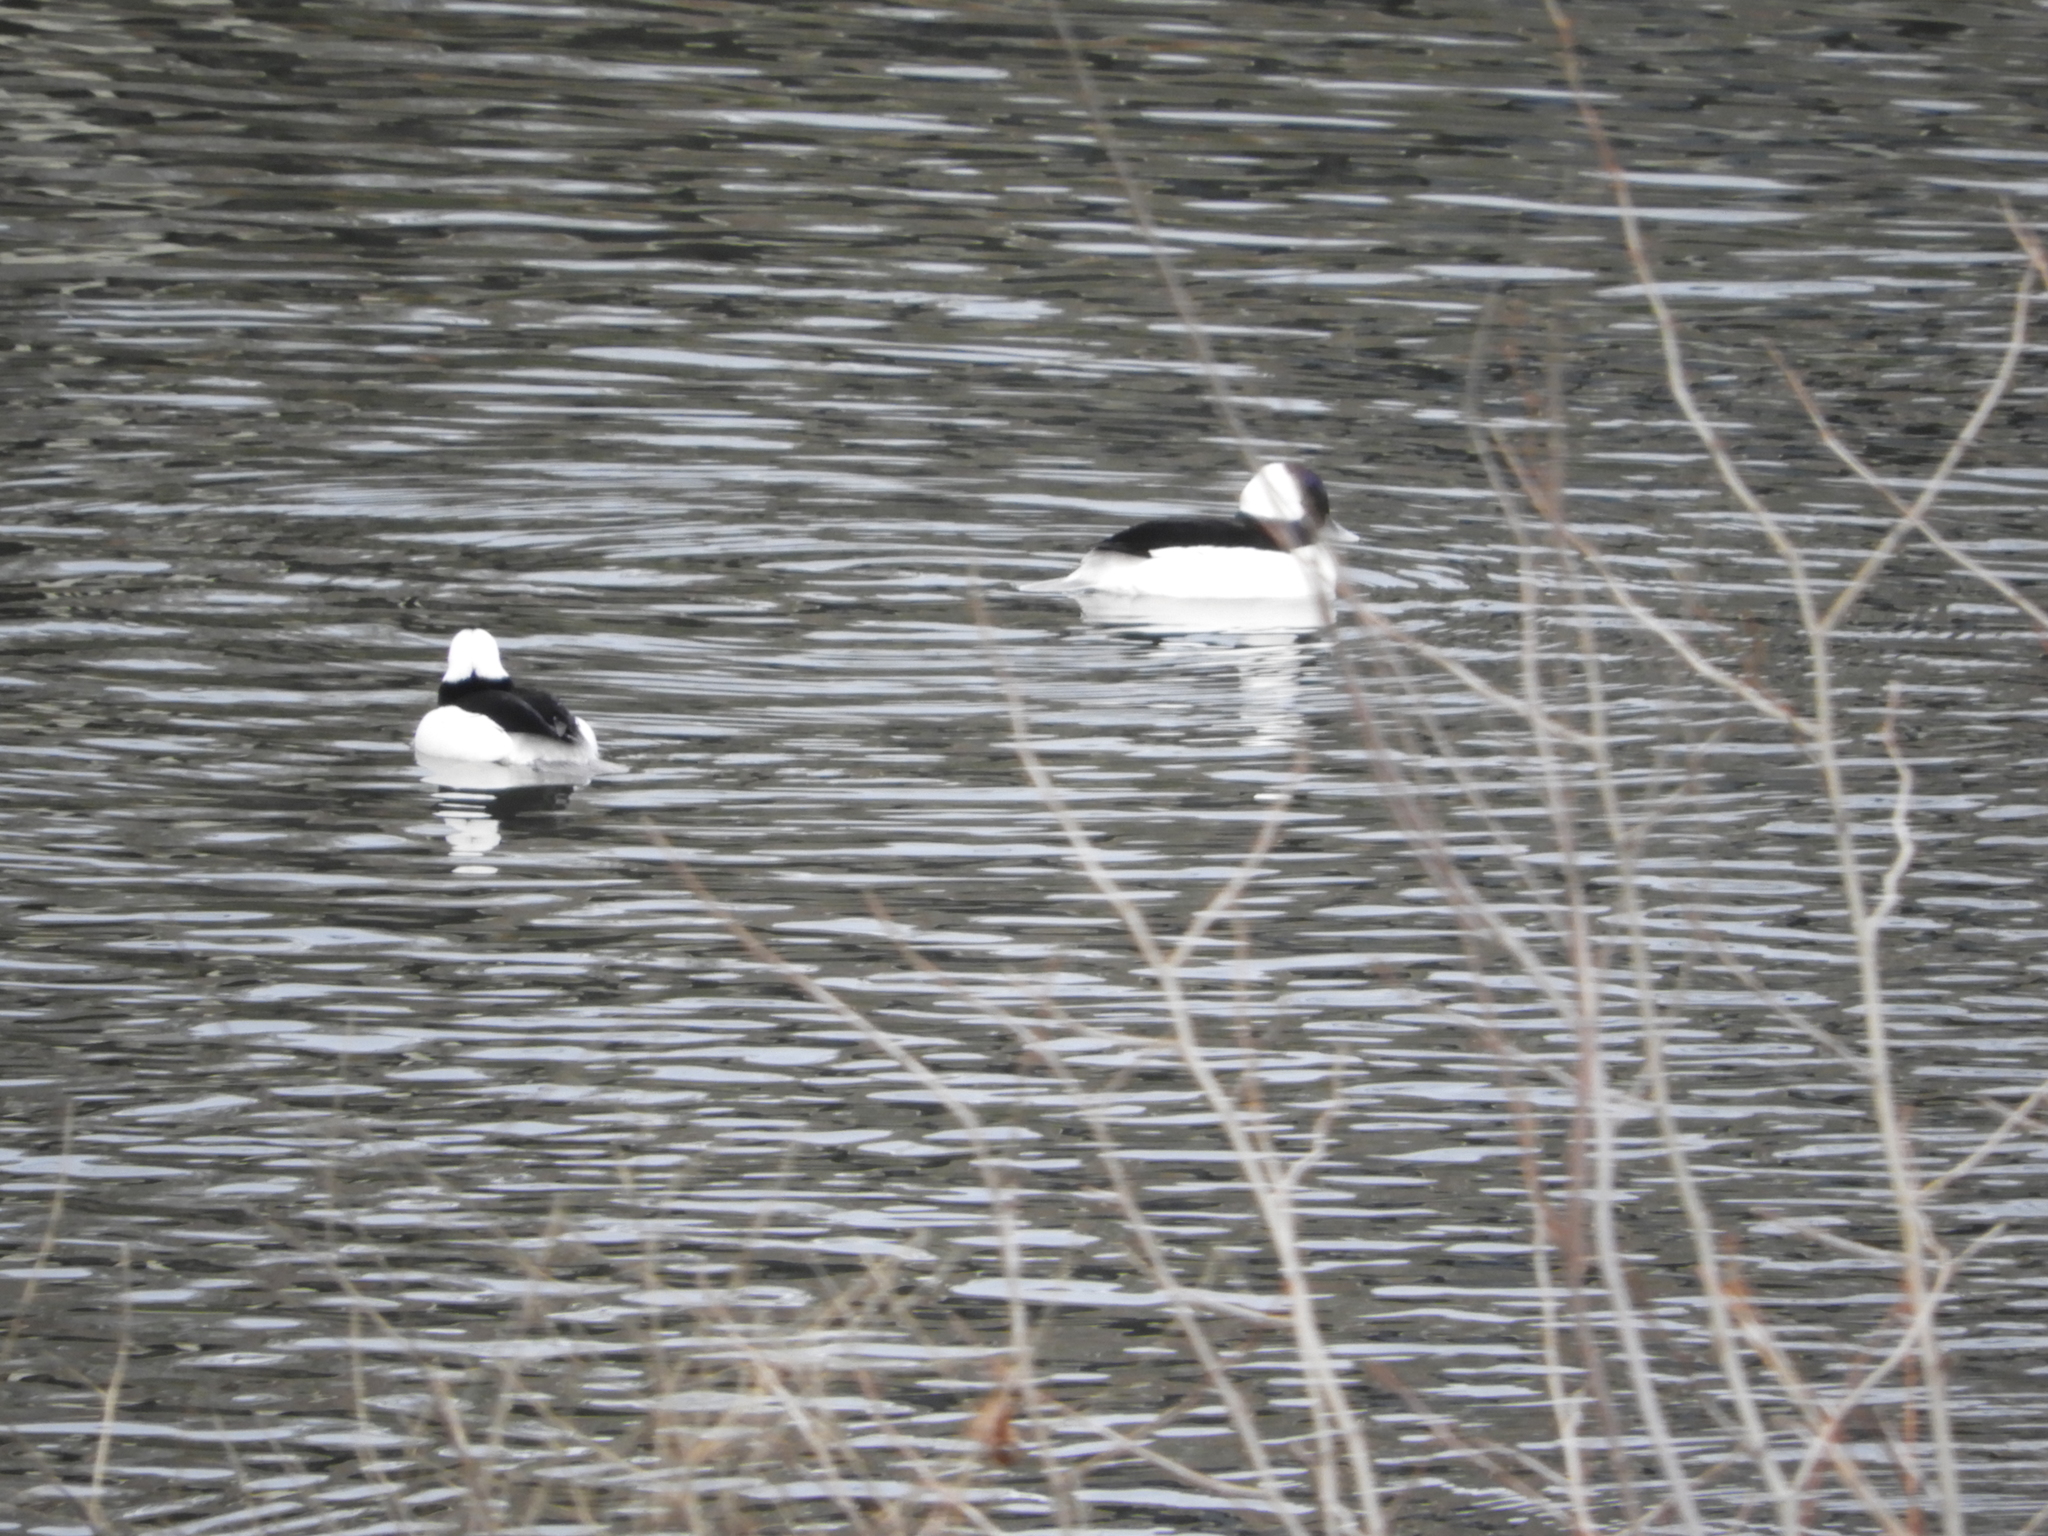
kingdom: Animalia
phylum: Chordata
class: Aves
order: Anseriformes
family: Anatidae
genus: Bucephala
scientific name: Bucephala albeola
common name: Bufflehead
